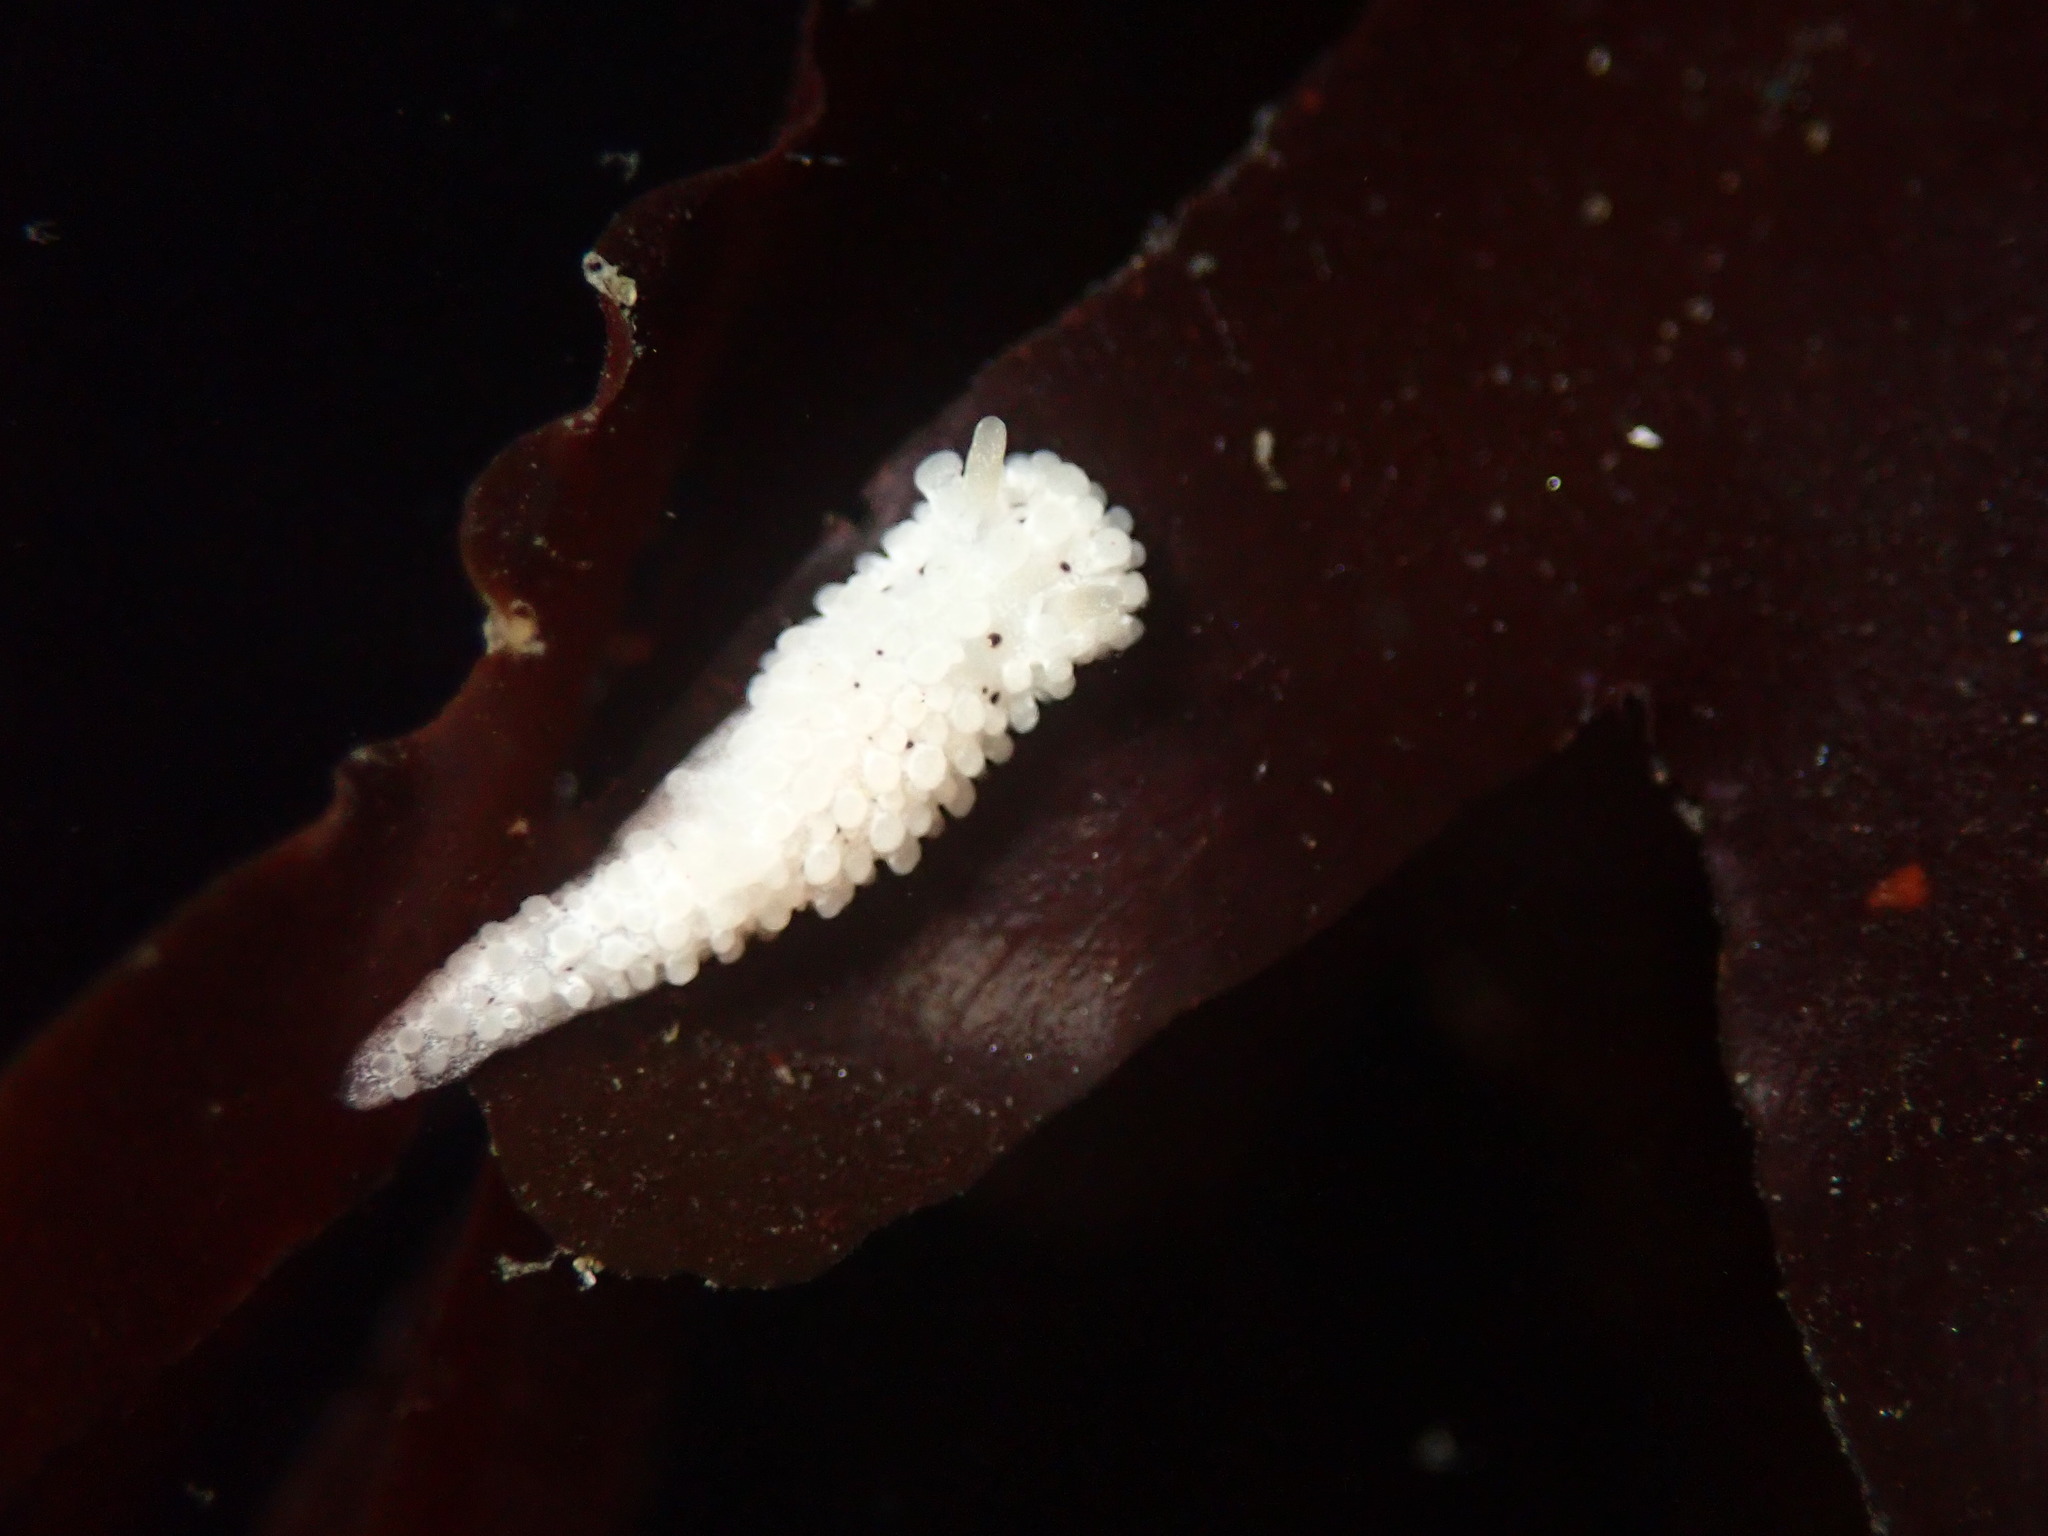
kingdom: Animalia
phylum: Mollusca
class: Gastropoda
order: Nudibranchia
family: Aegiridae
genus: Aegires
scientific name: Aegires albopunctatus
